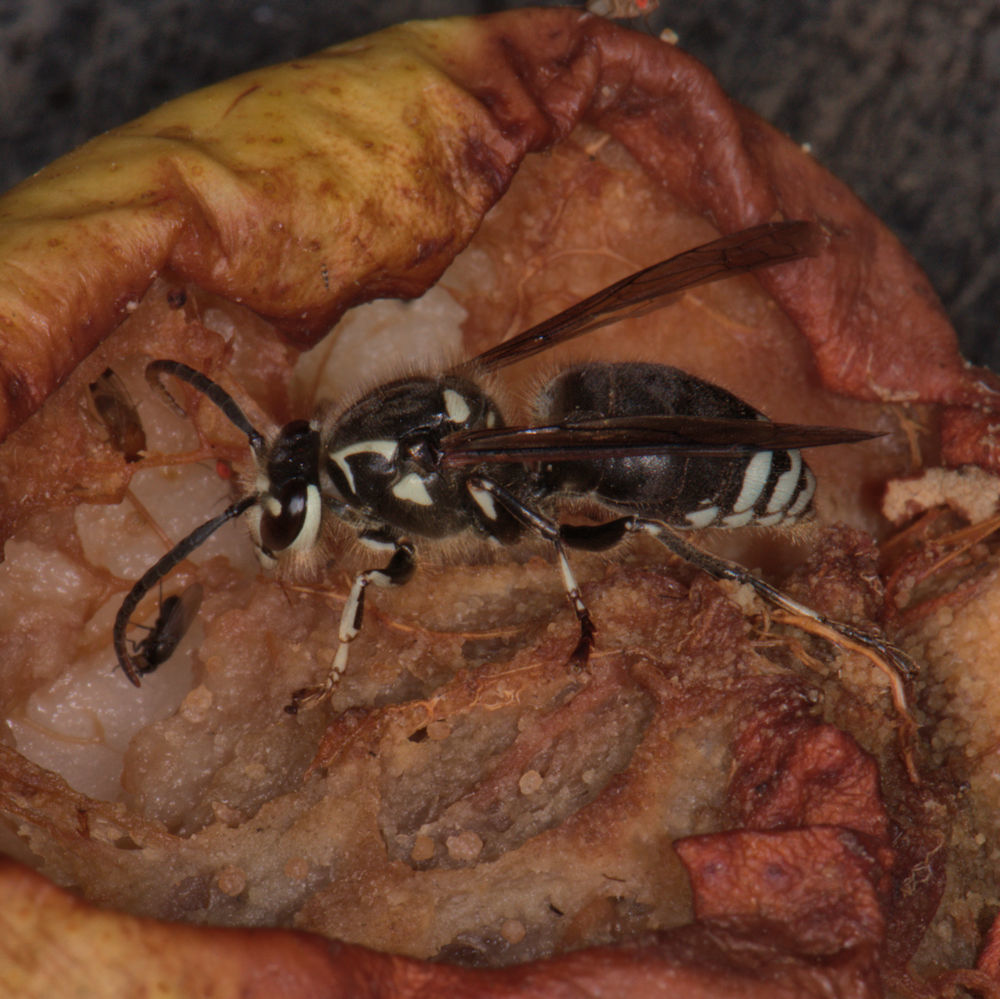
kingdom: Animalia
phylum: Arthropoda
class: Insecta
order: Hymenoptera
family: Vespidae
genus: Dolichovespula
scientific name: Dolichovespula maculata
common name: Bald-faced hornet
